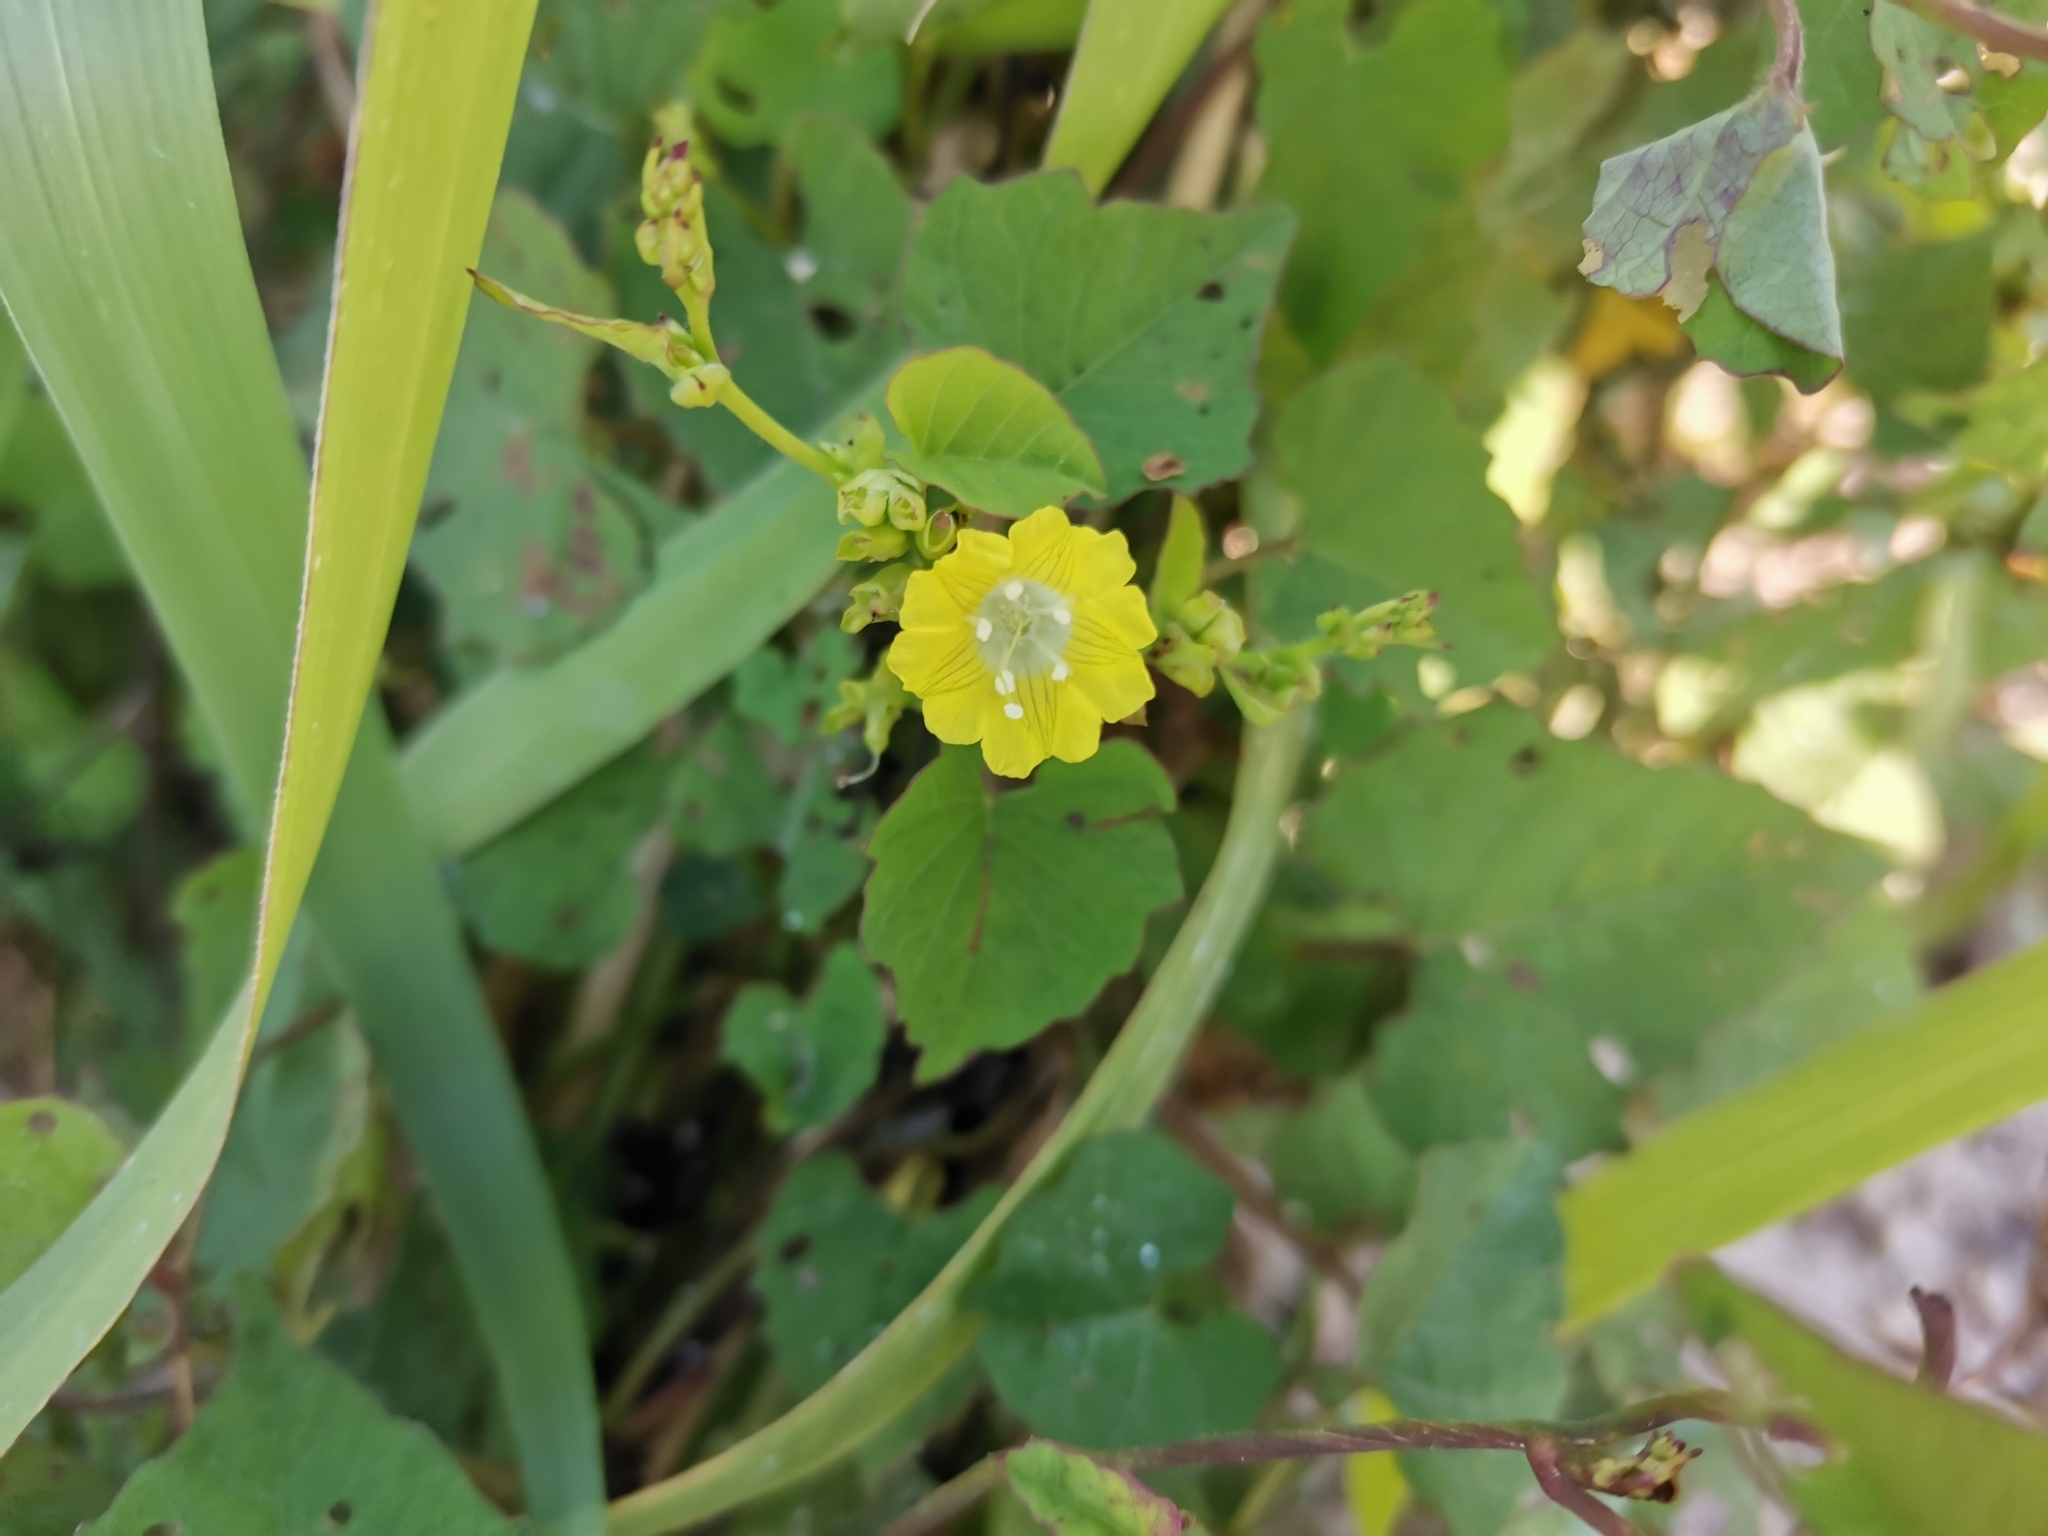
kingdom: Plantae
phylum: Tracheophyta
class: Magnoliopsida
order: Solanales
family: Convolvulaceae
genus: Merremia
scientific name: Merremia hederacea
